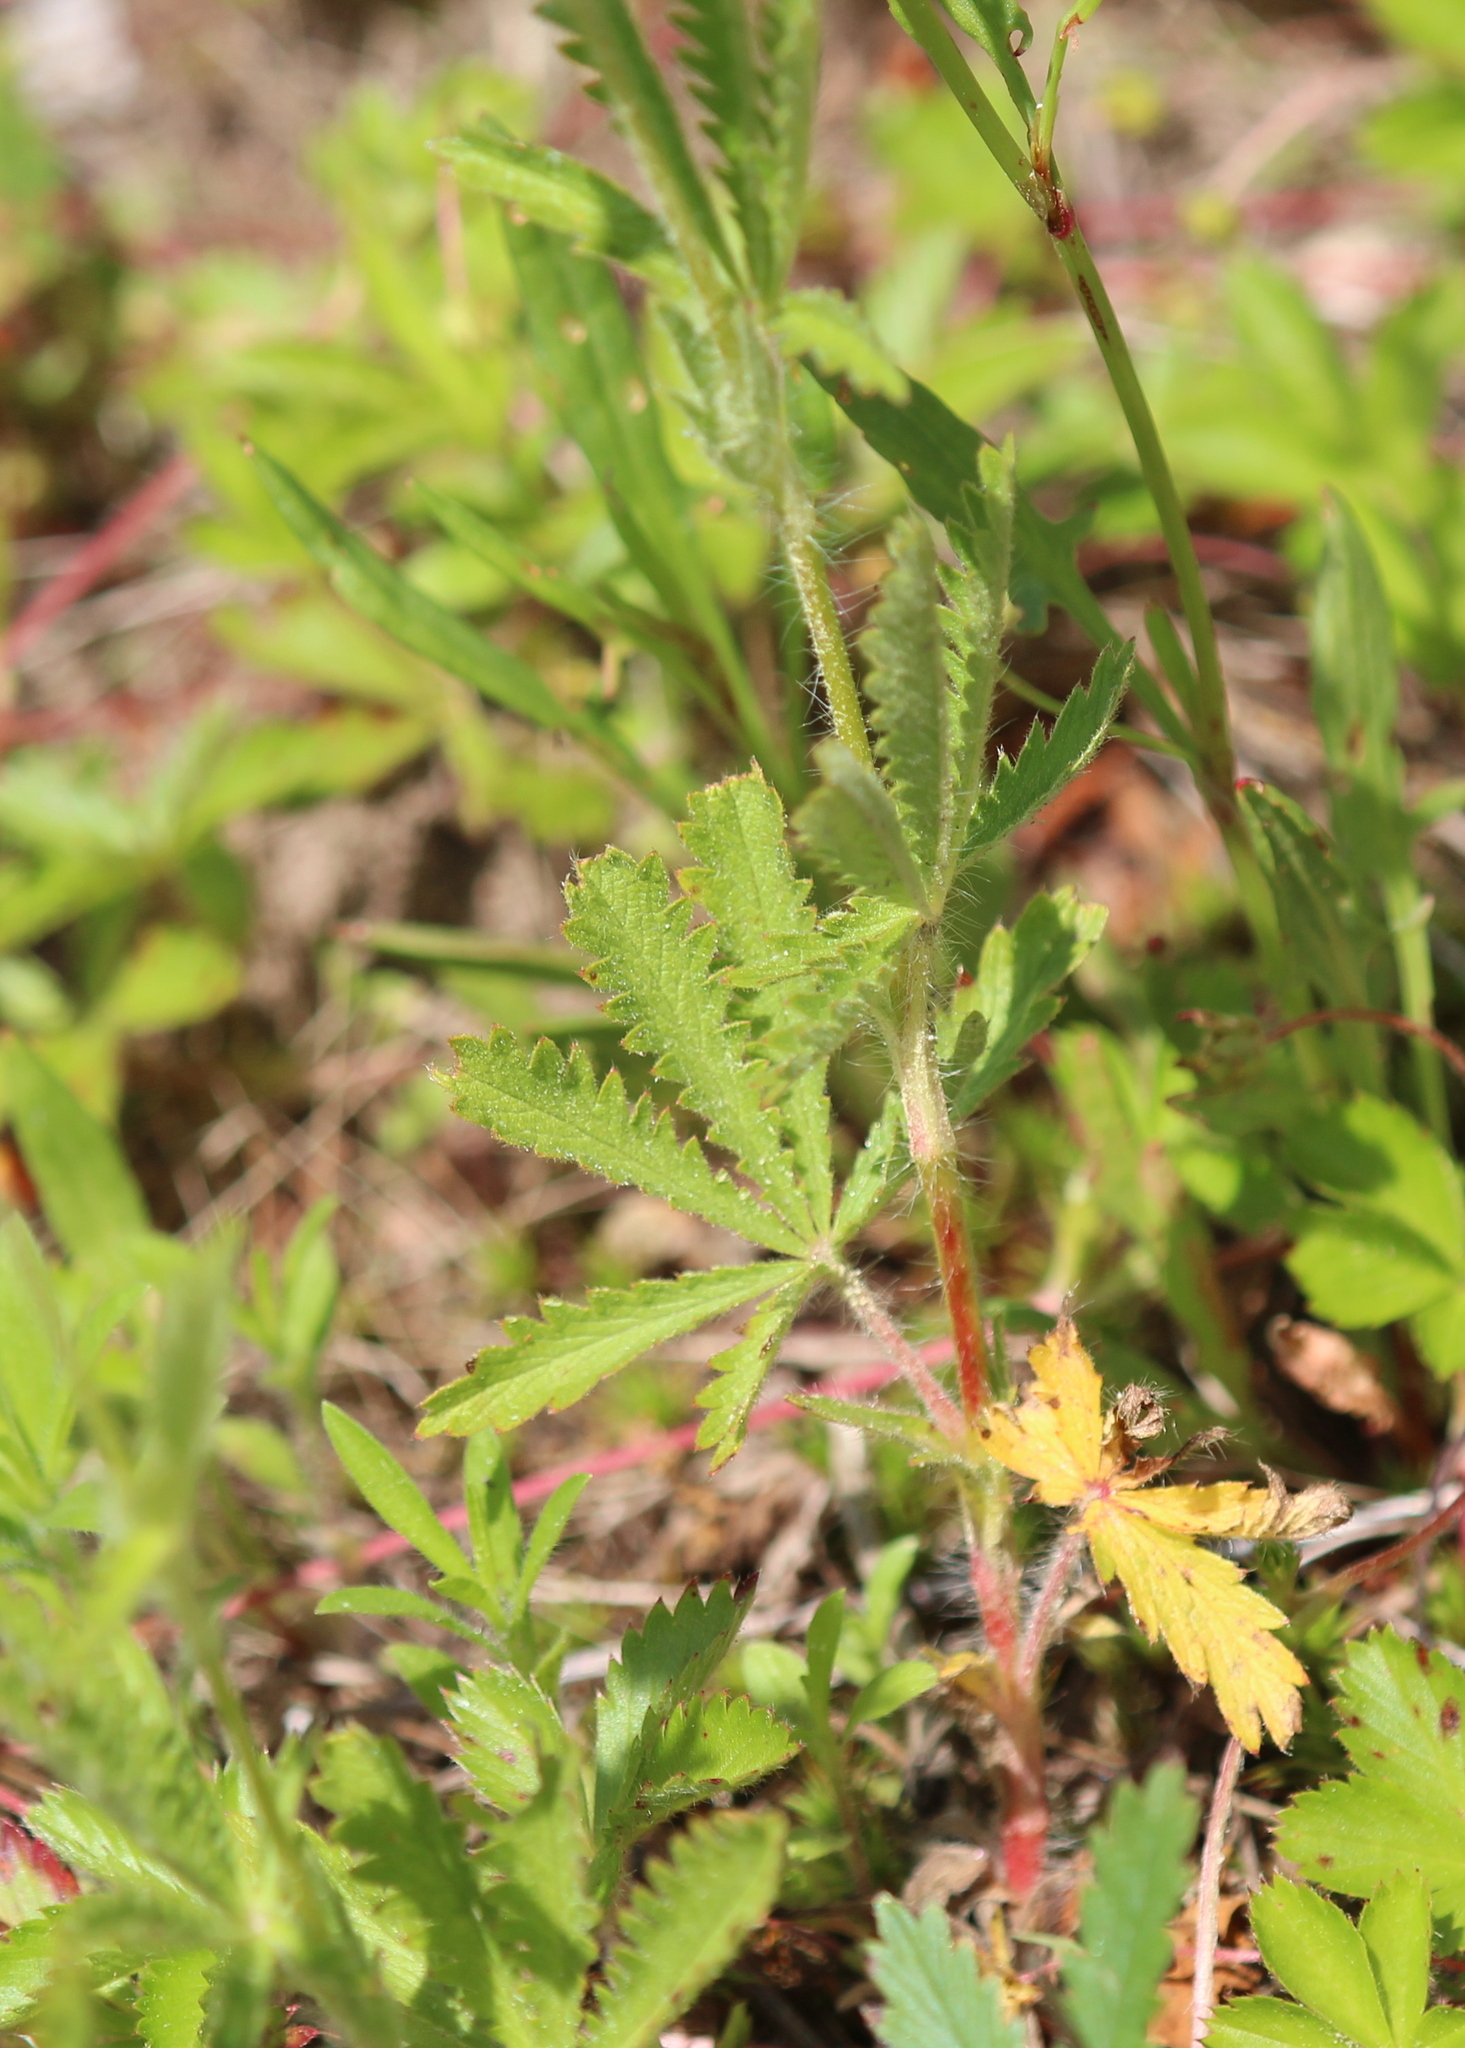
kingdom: Plantae
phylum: Tracheophyta
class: Magnoliopsida
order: Rosales
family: Rosaceae
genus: Potentilla
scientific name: Potentilla recta
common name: Sulphur cinquefoil
